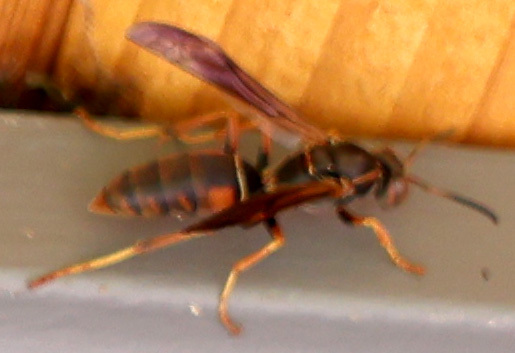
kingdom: Animalia
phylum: Arthropoda
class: Insecta
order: Hymenoptera
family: Eumenidae
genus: Polistes
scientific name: Polistes fuscatus
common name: Dark paper wasp
